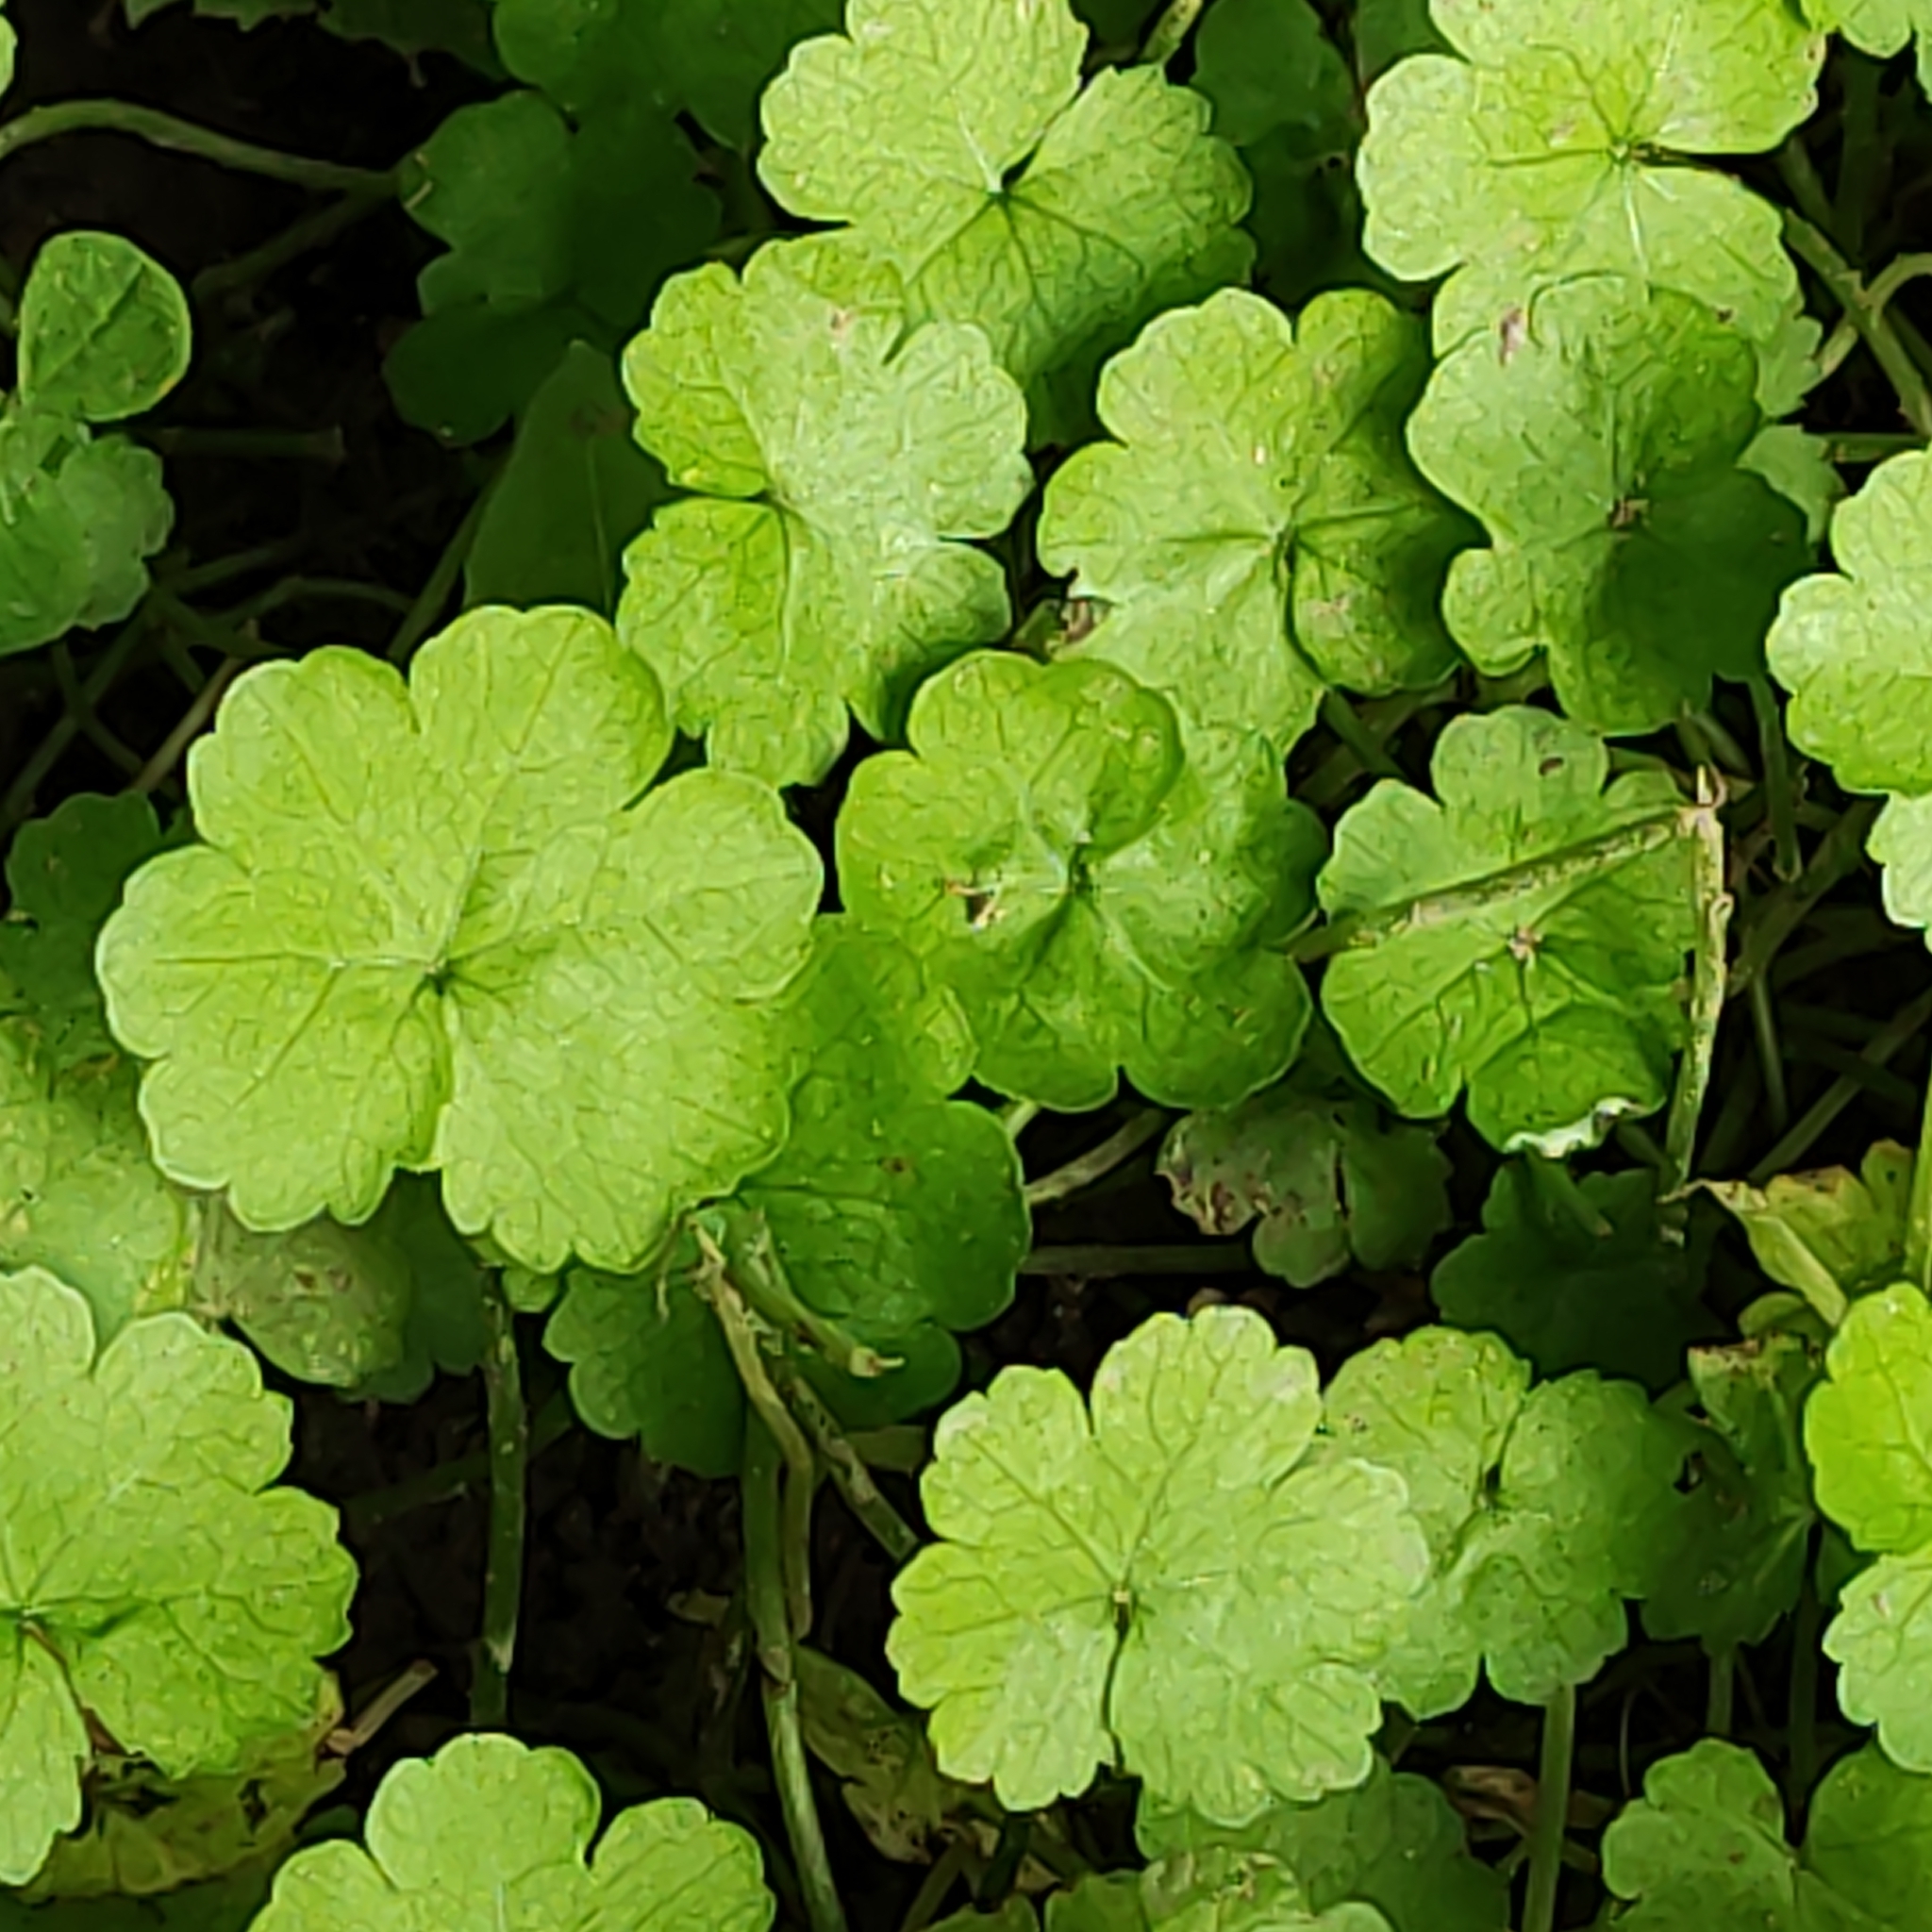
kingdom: Plantae
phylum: Tracheophyta
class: Magnoliopsida
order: Apiales
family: Araliaceae
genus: Hydrocotyle
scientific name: Hydrocotyle heteromeria
